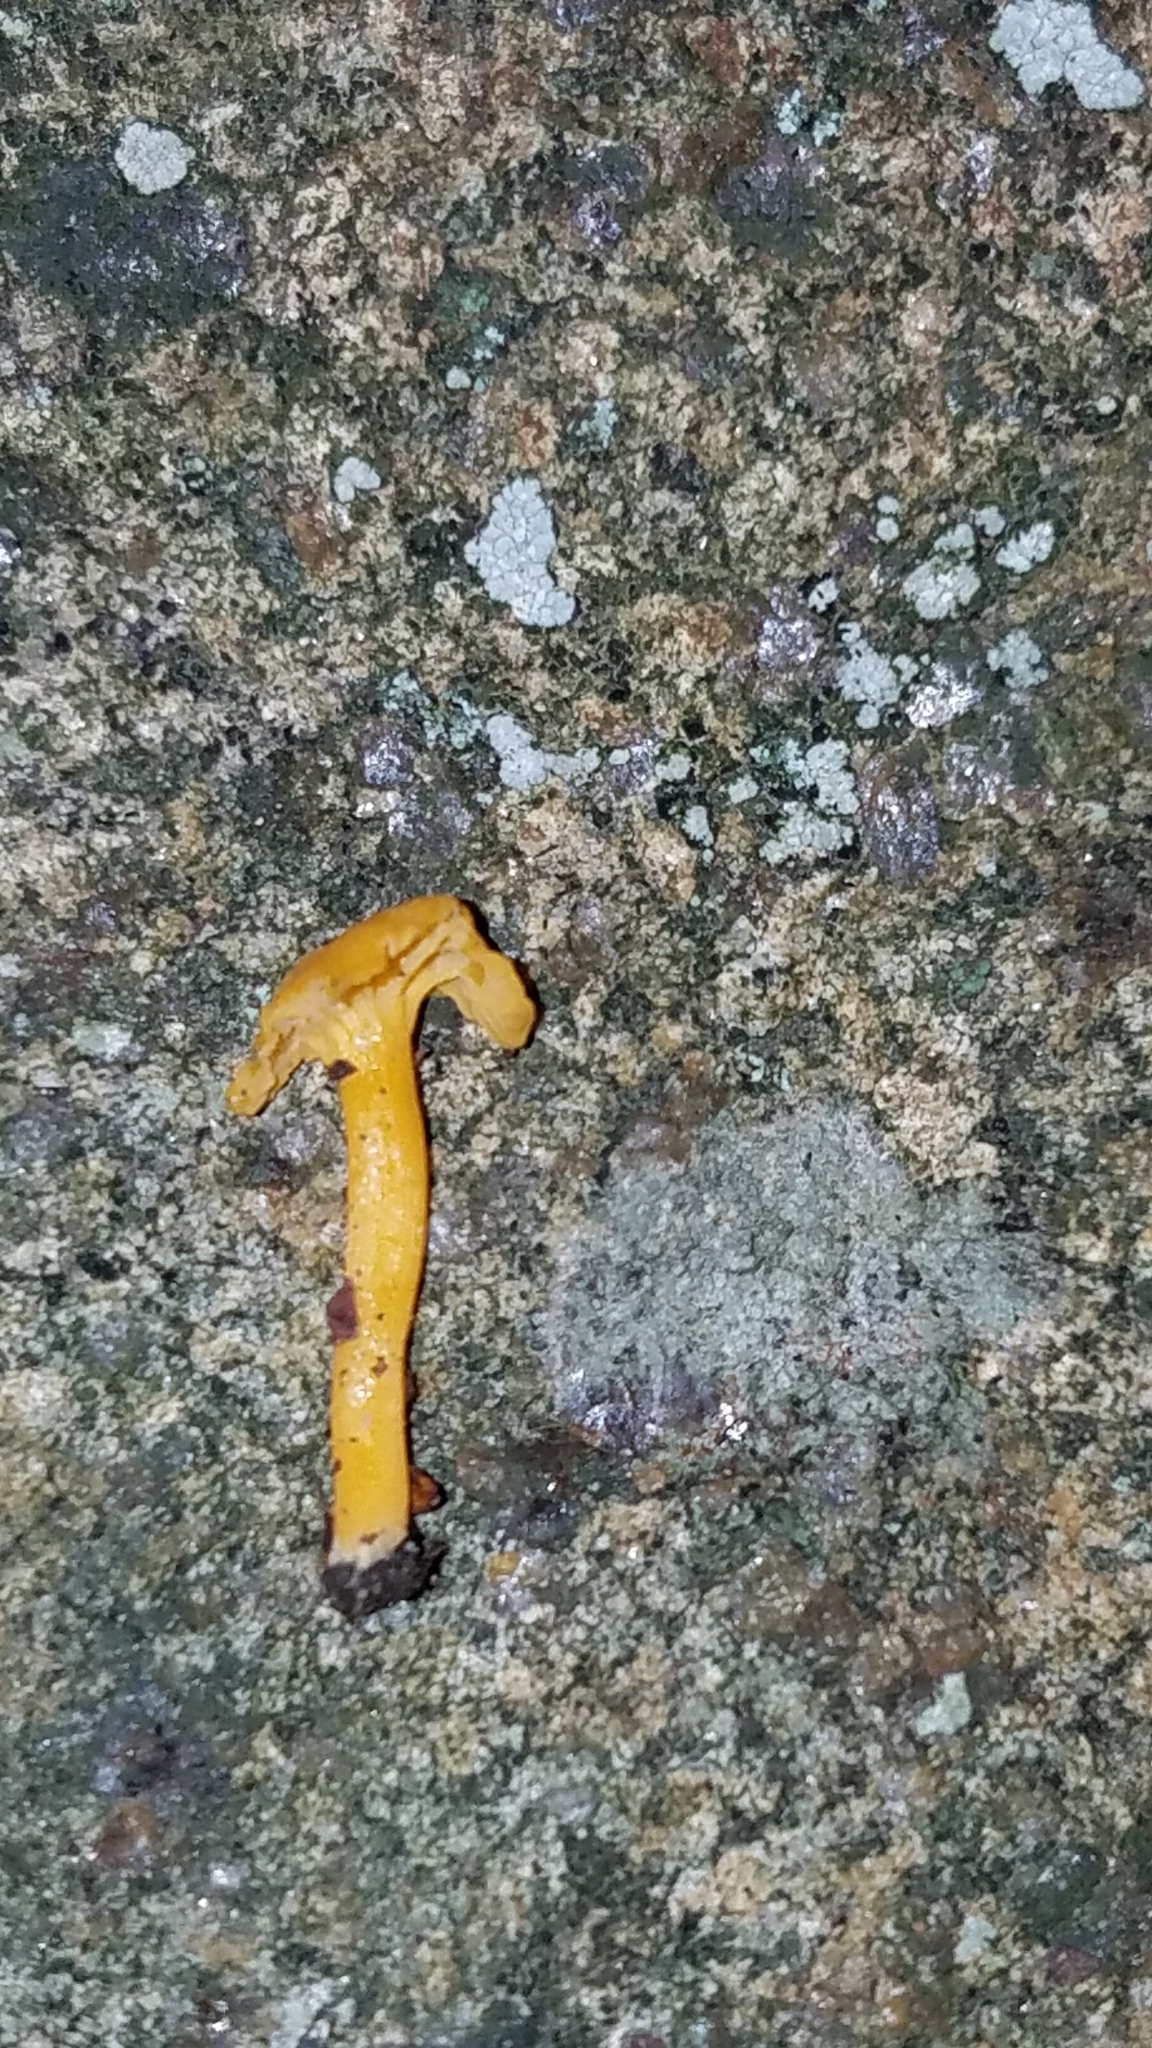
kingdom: Fungi
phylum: Basidiomycota
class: Agaricomycetes
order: Cantharellales
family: Hydnaceae
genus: Cantharellus
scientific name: Cantharellus minor
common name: Small chanterelle
